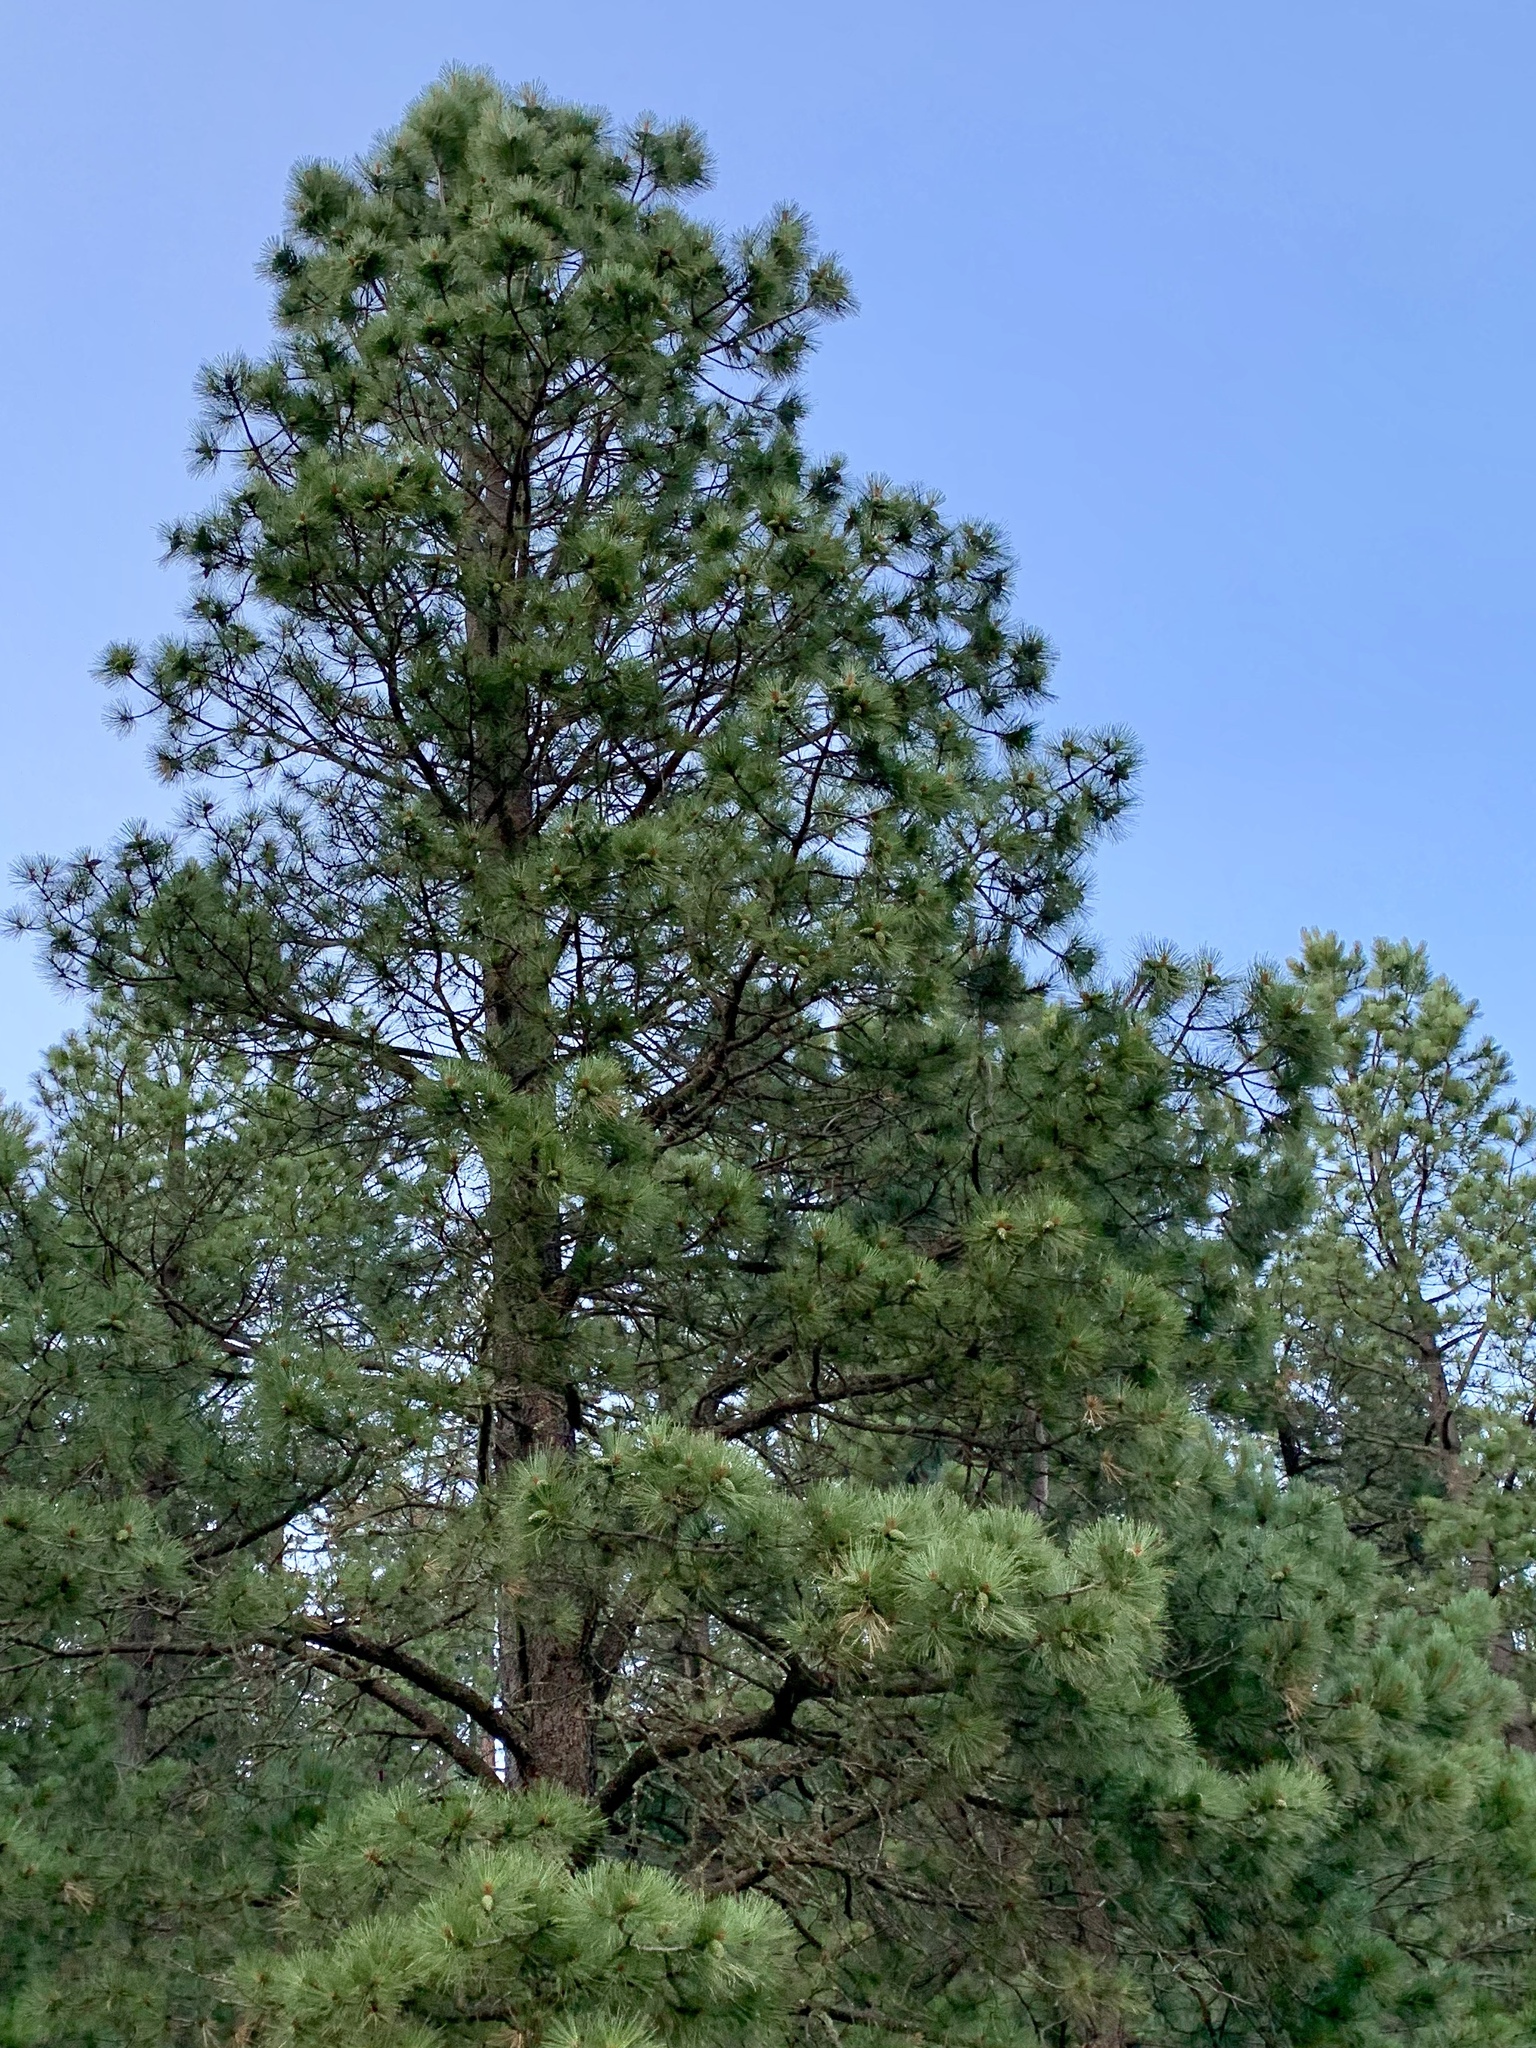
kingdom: Plantae
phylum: Tracheophyta
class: Pinopsida
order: Pinales
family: Pinaceae
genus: Pinus
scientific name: Pinus ponderosa
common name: Western yellow-pine
